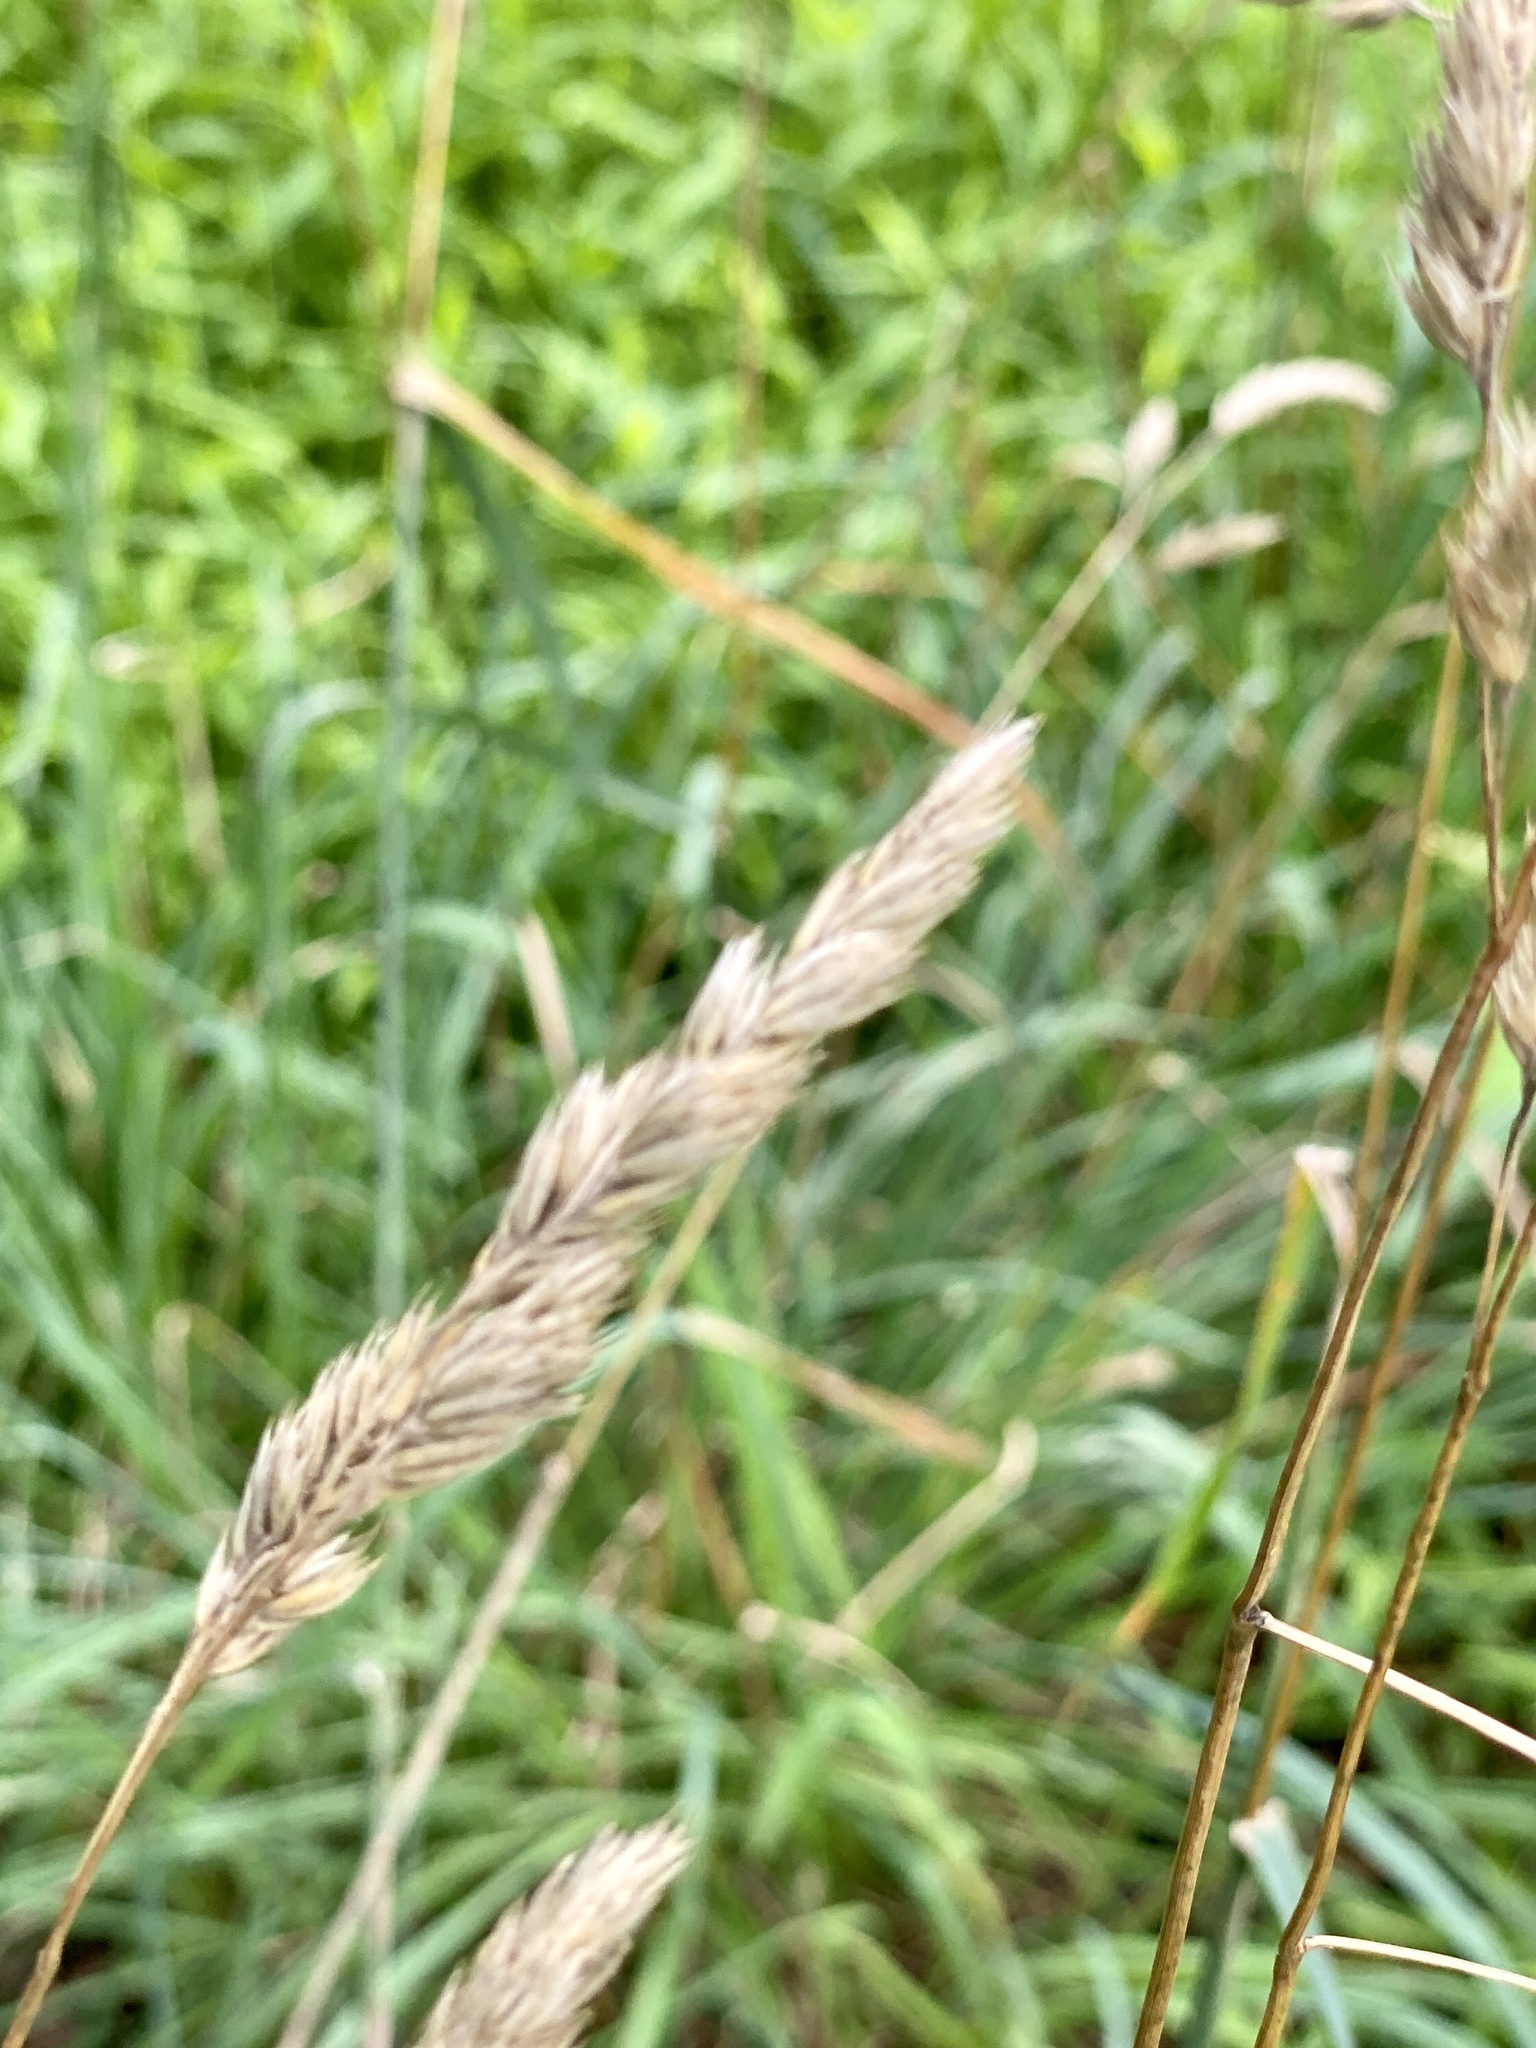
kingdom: Plantae
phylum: Tracheophyta
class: Liliopsida
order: Poales
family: Poaceae
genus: Dactylis
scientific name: Dactylis glomerata
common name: Orchardgrass
